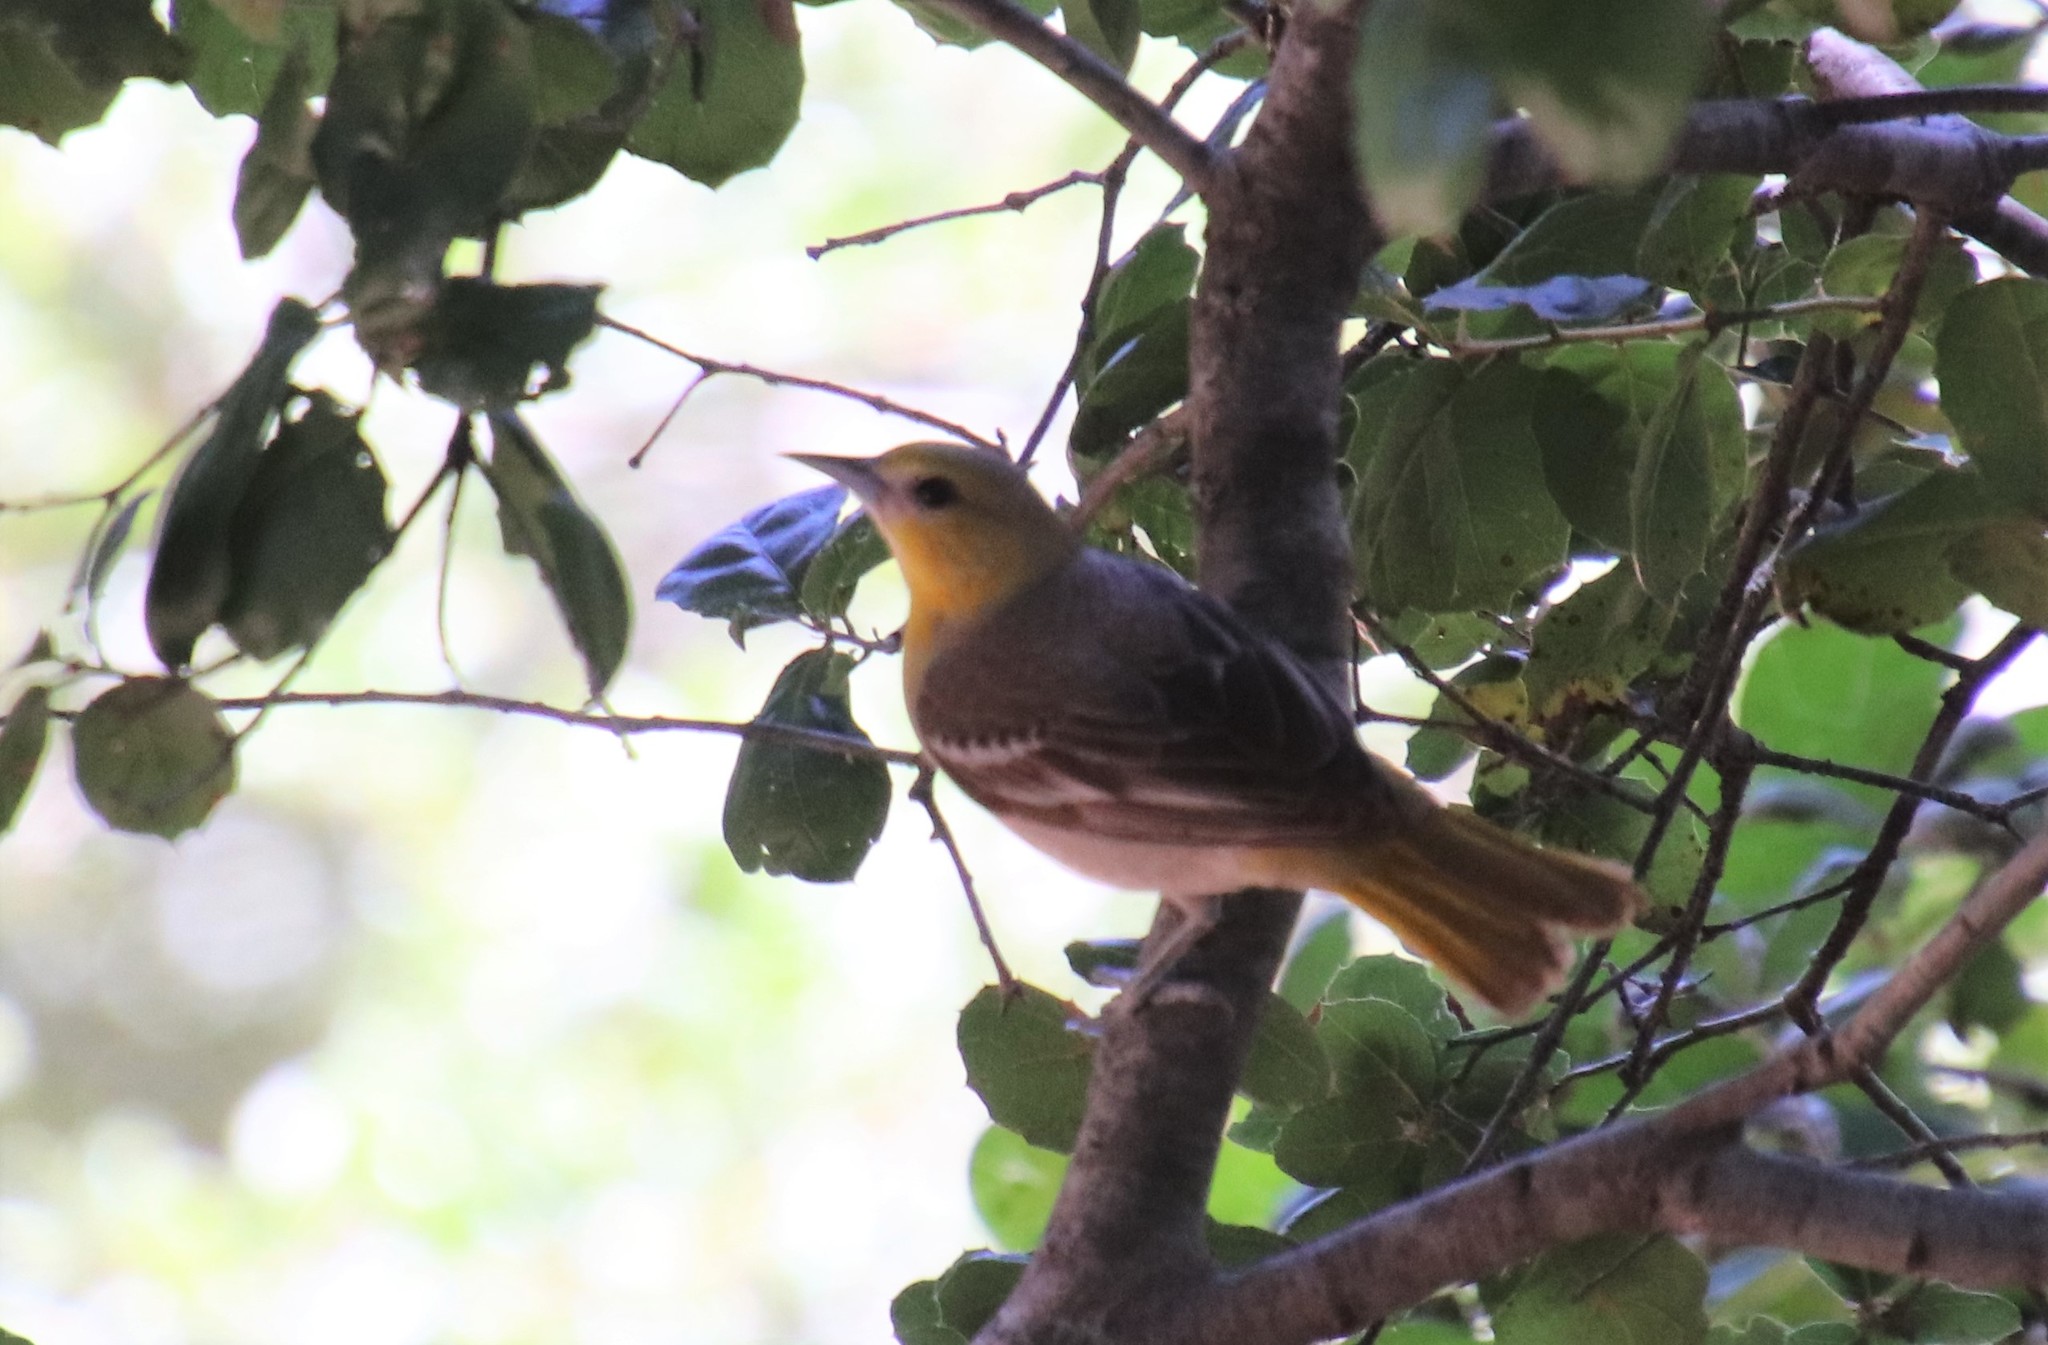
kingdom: Animalia
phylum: Chordata
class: Aves
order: Passeriformes
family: Icteridae
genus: Icterus
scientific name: Icterus bullockii
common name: Bullock's oriole
